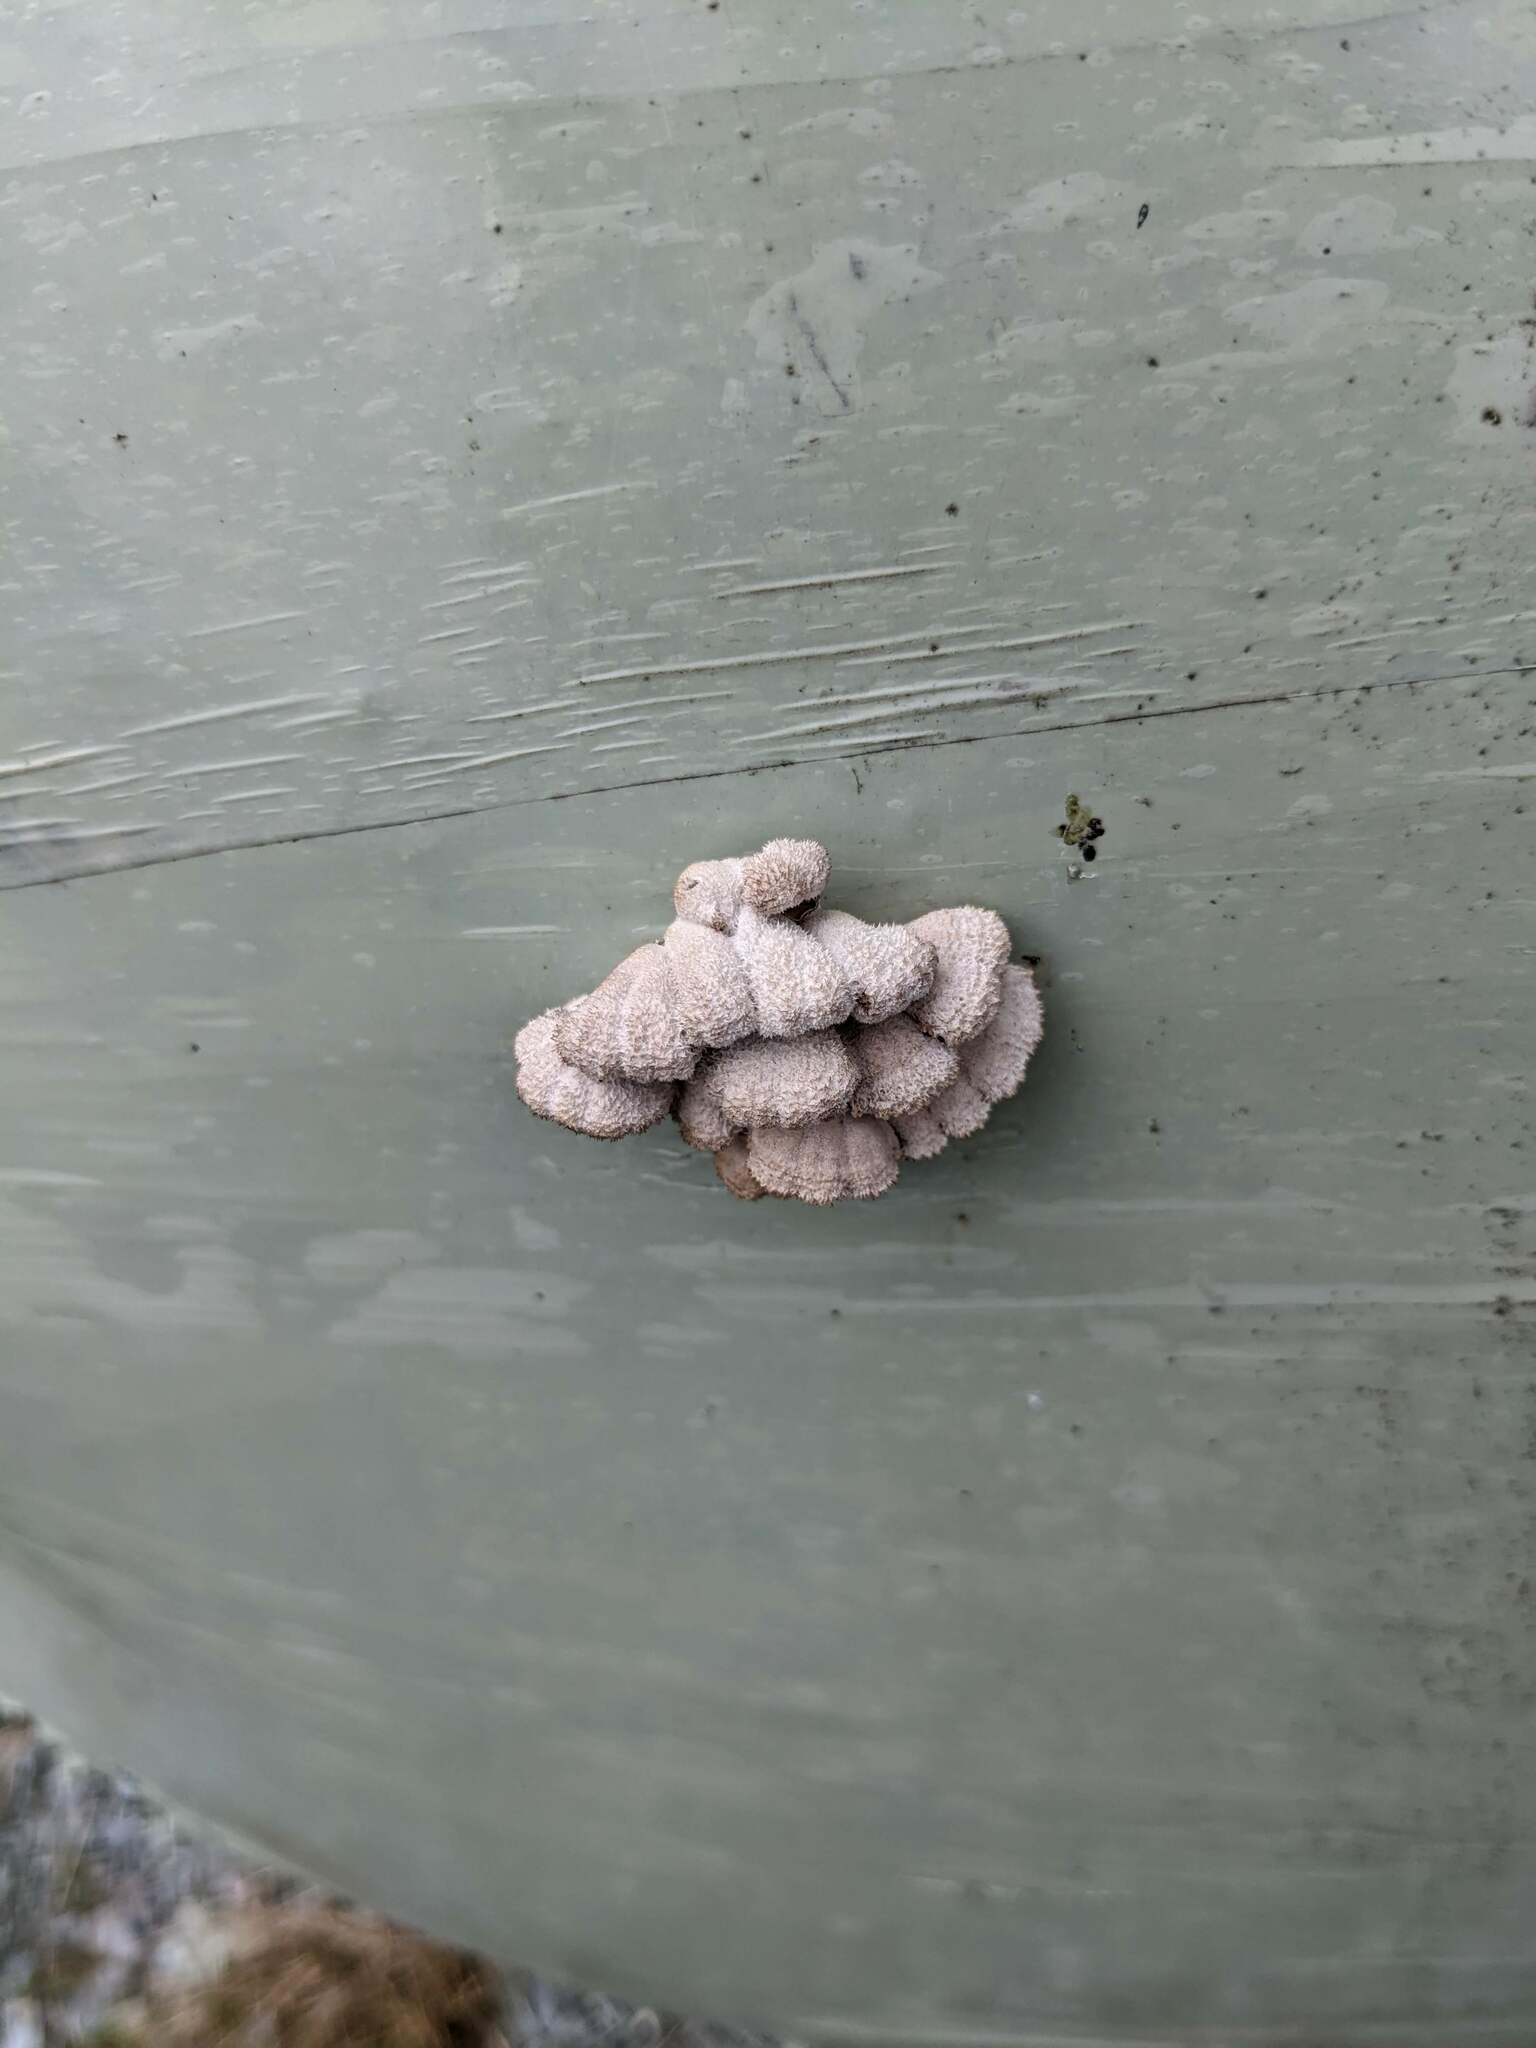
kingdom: Fungi
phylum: Basidiomycota
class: Agaricomycetes
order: Agaricales
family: Schizophyllaceae
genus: Schizophyllum
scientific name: Schizophyllum commune
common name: Common porecrust
